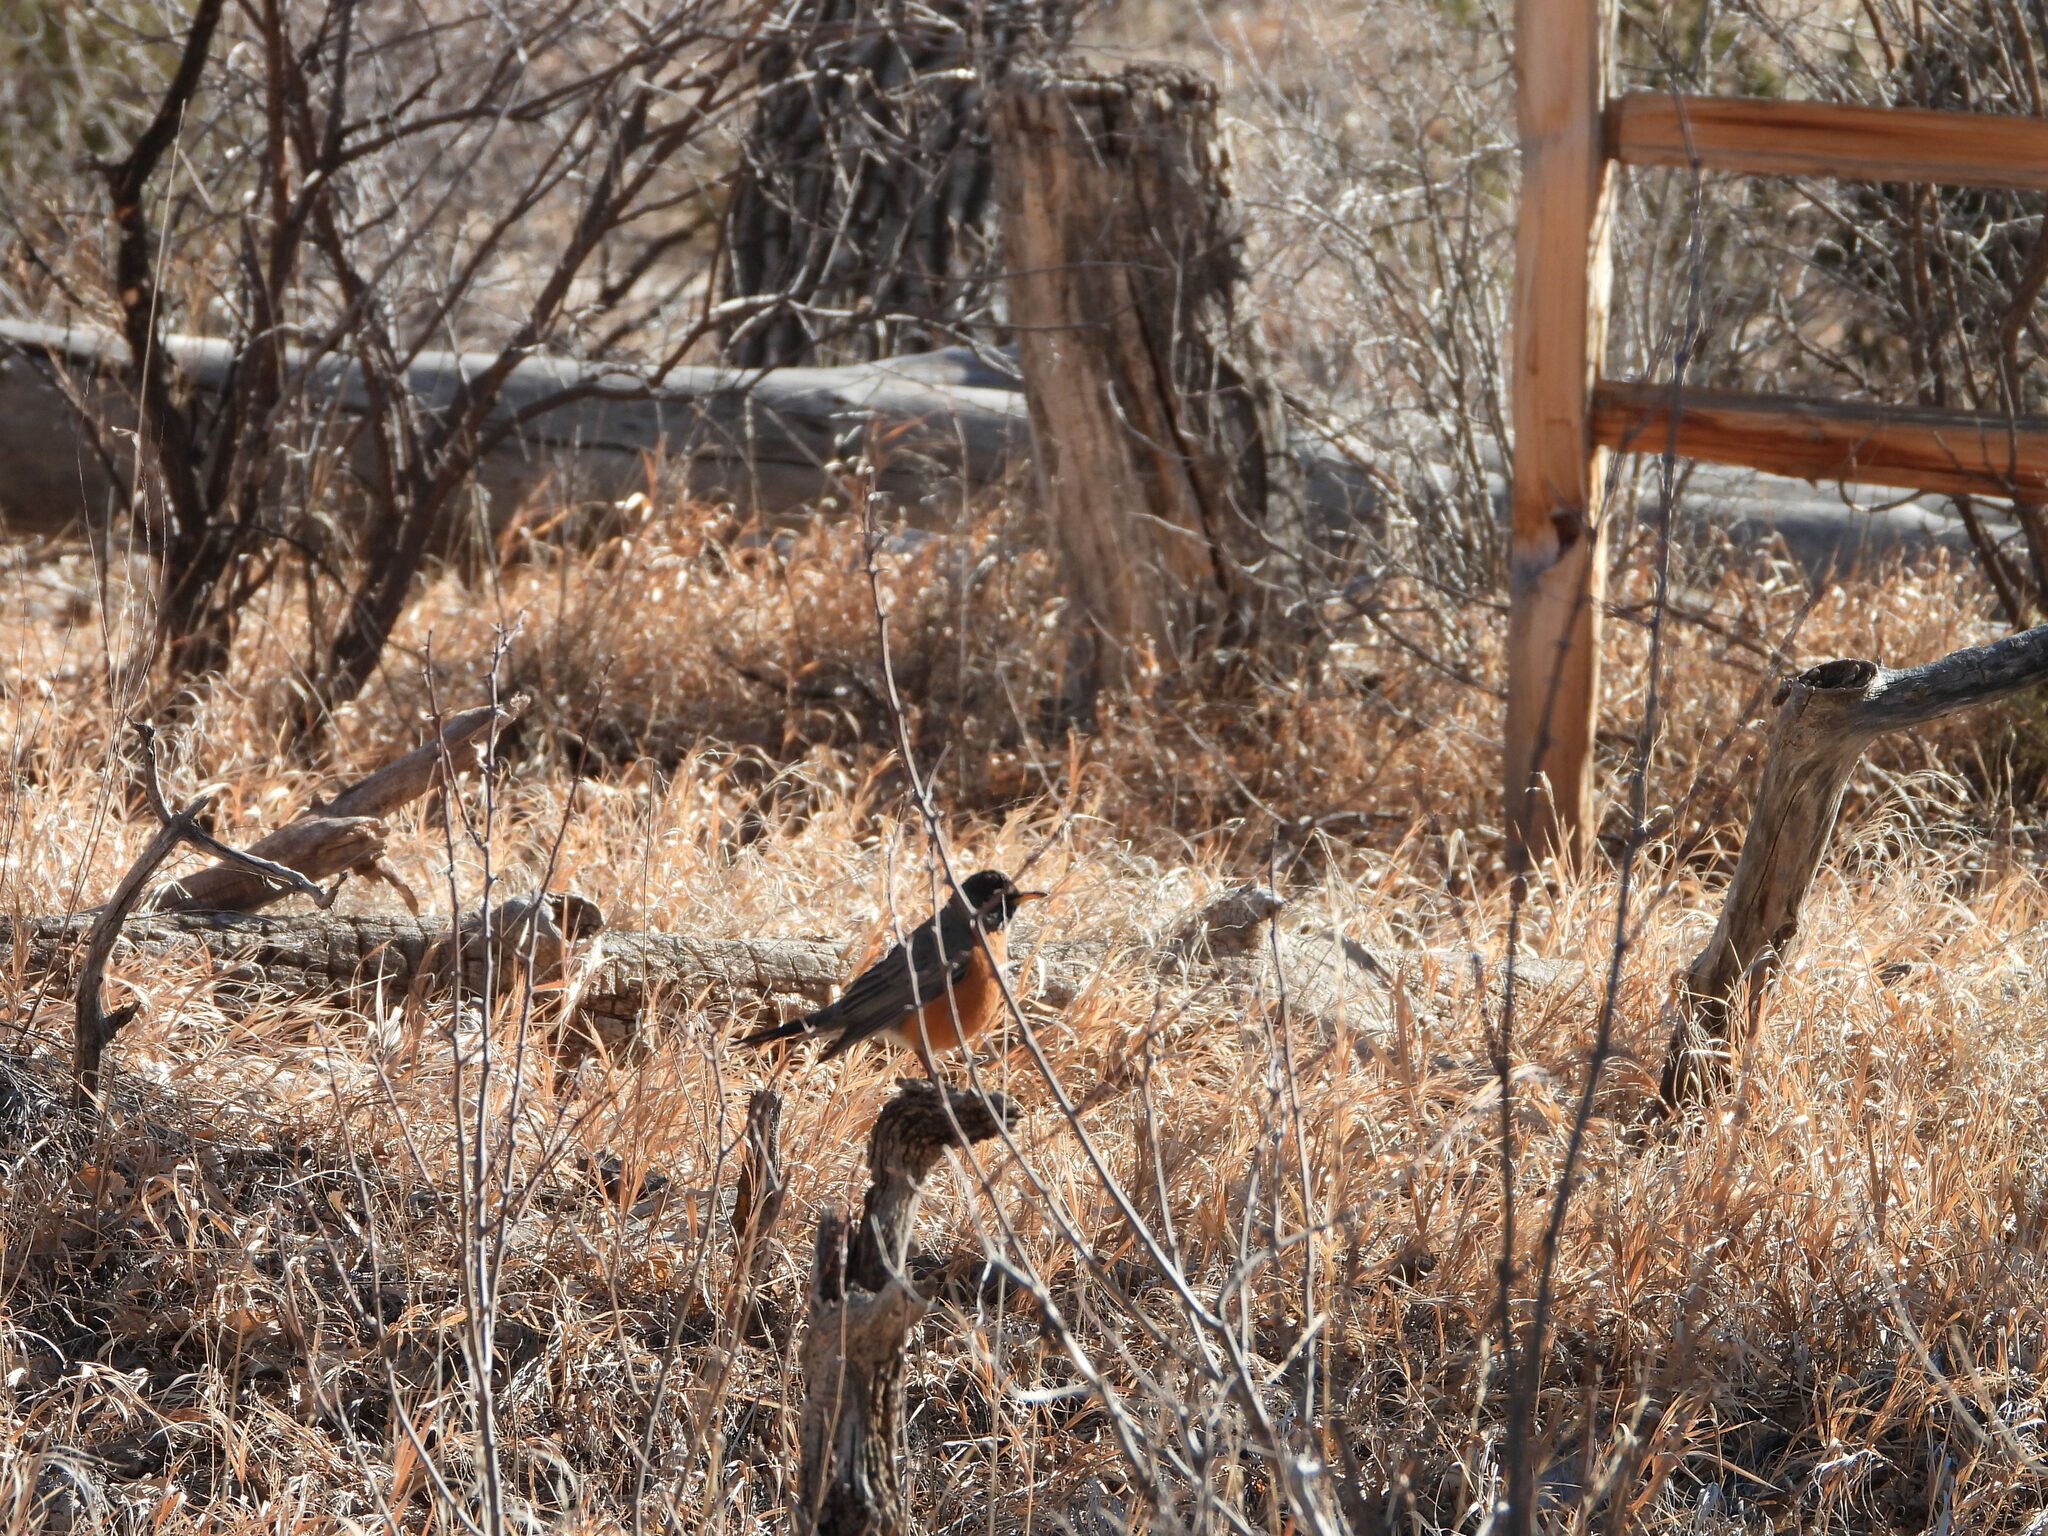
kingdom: Animalia
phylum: Chordata
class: Aves
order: Passeriformes
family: Turdidae
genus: Turdus
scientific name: Turdus migratorius
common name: American robin
